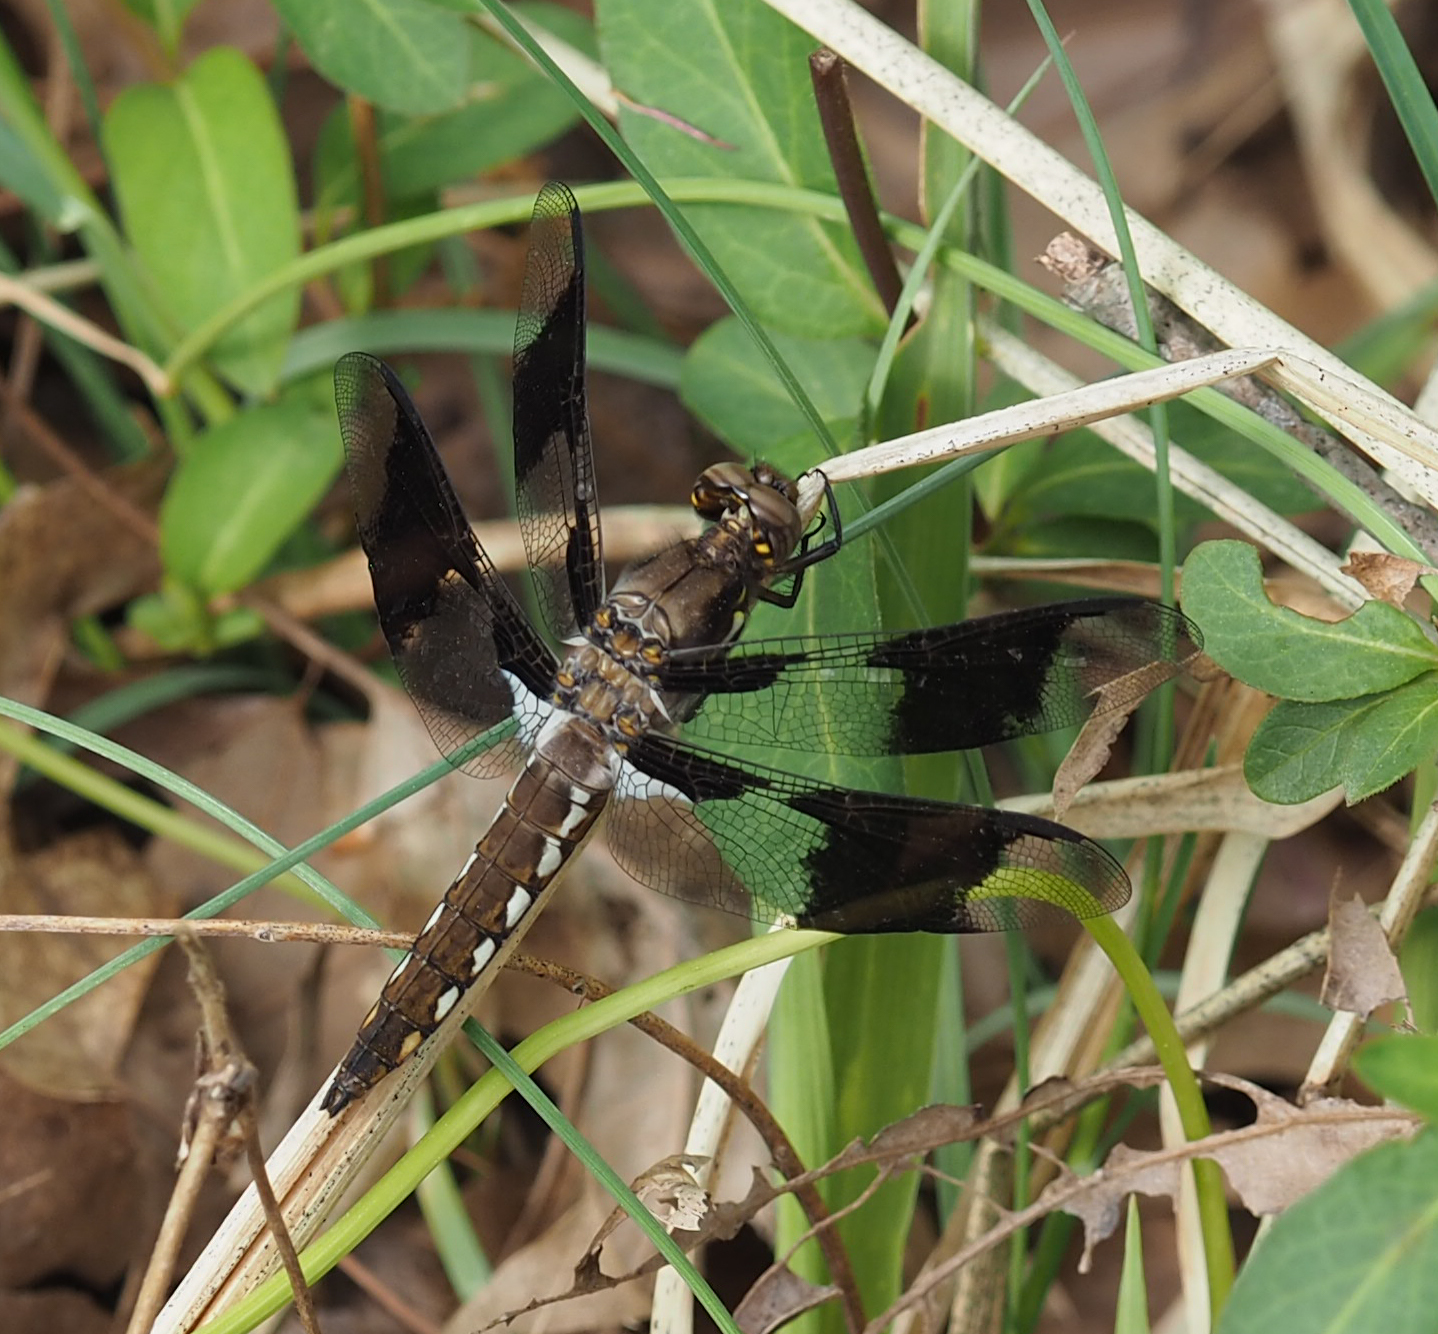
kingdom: Animalia
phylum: Arthropoda
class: Insecta
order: Odonata
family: Libellulidae
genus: Plathemis
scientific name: Plathemis lydia
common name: Common whitetail
